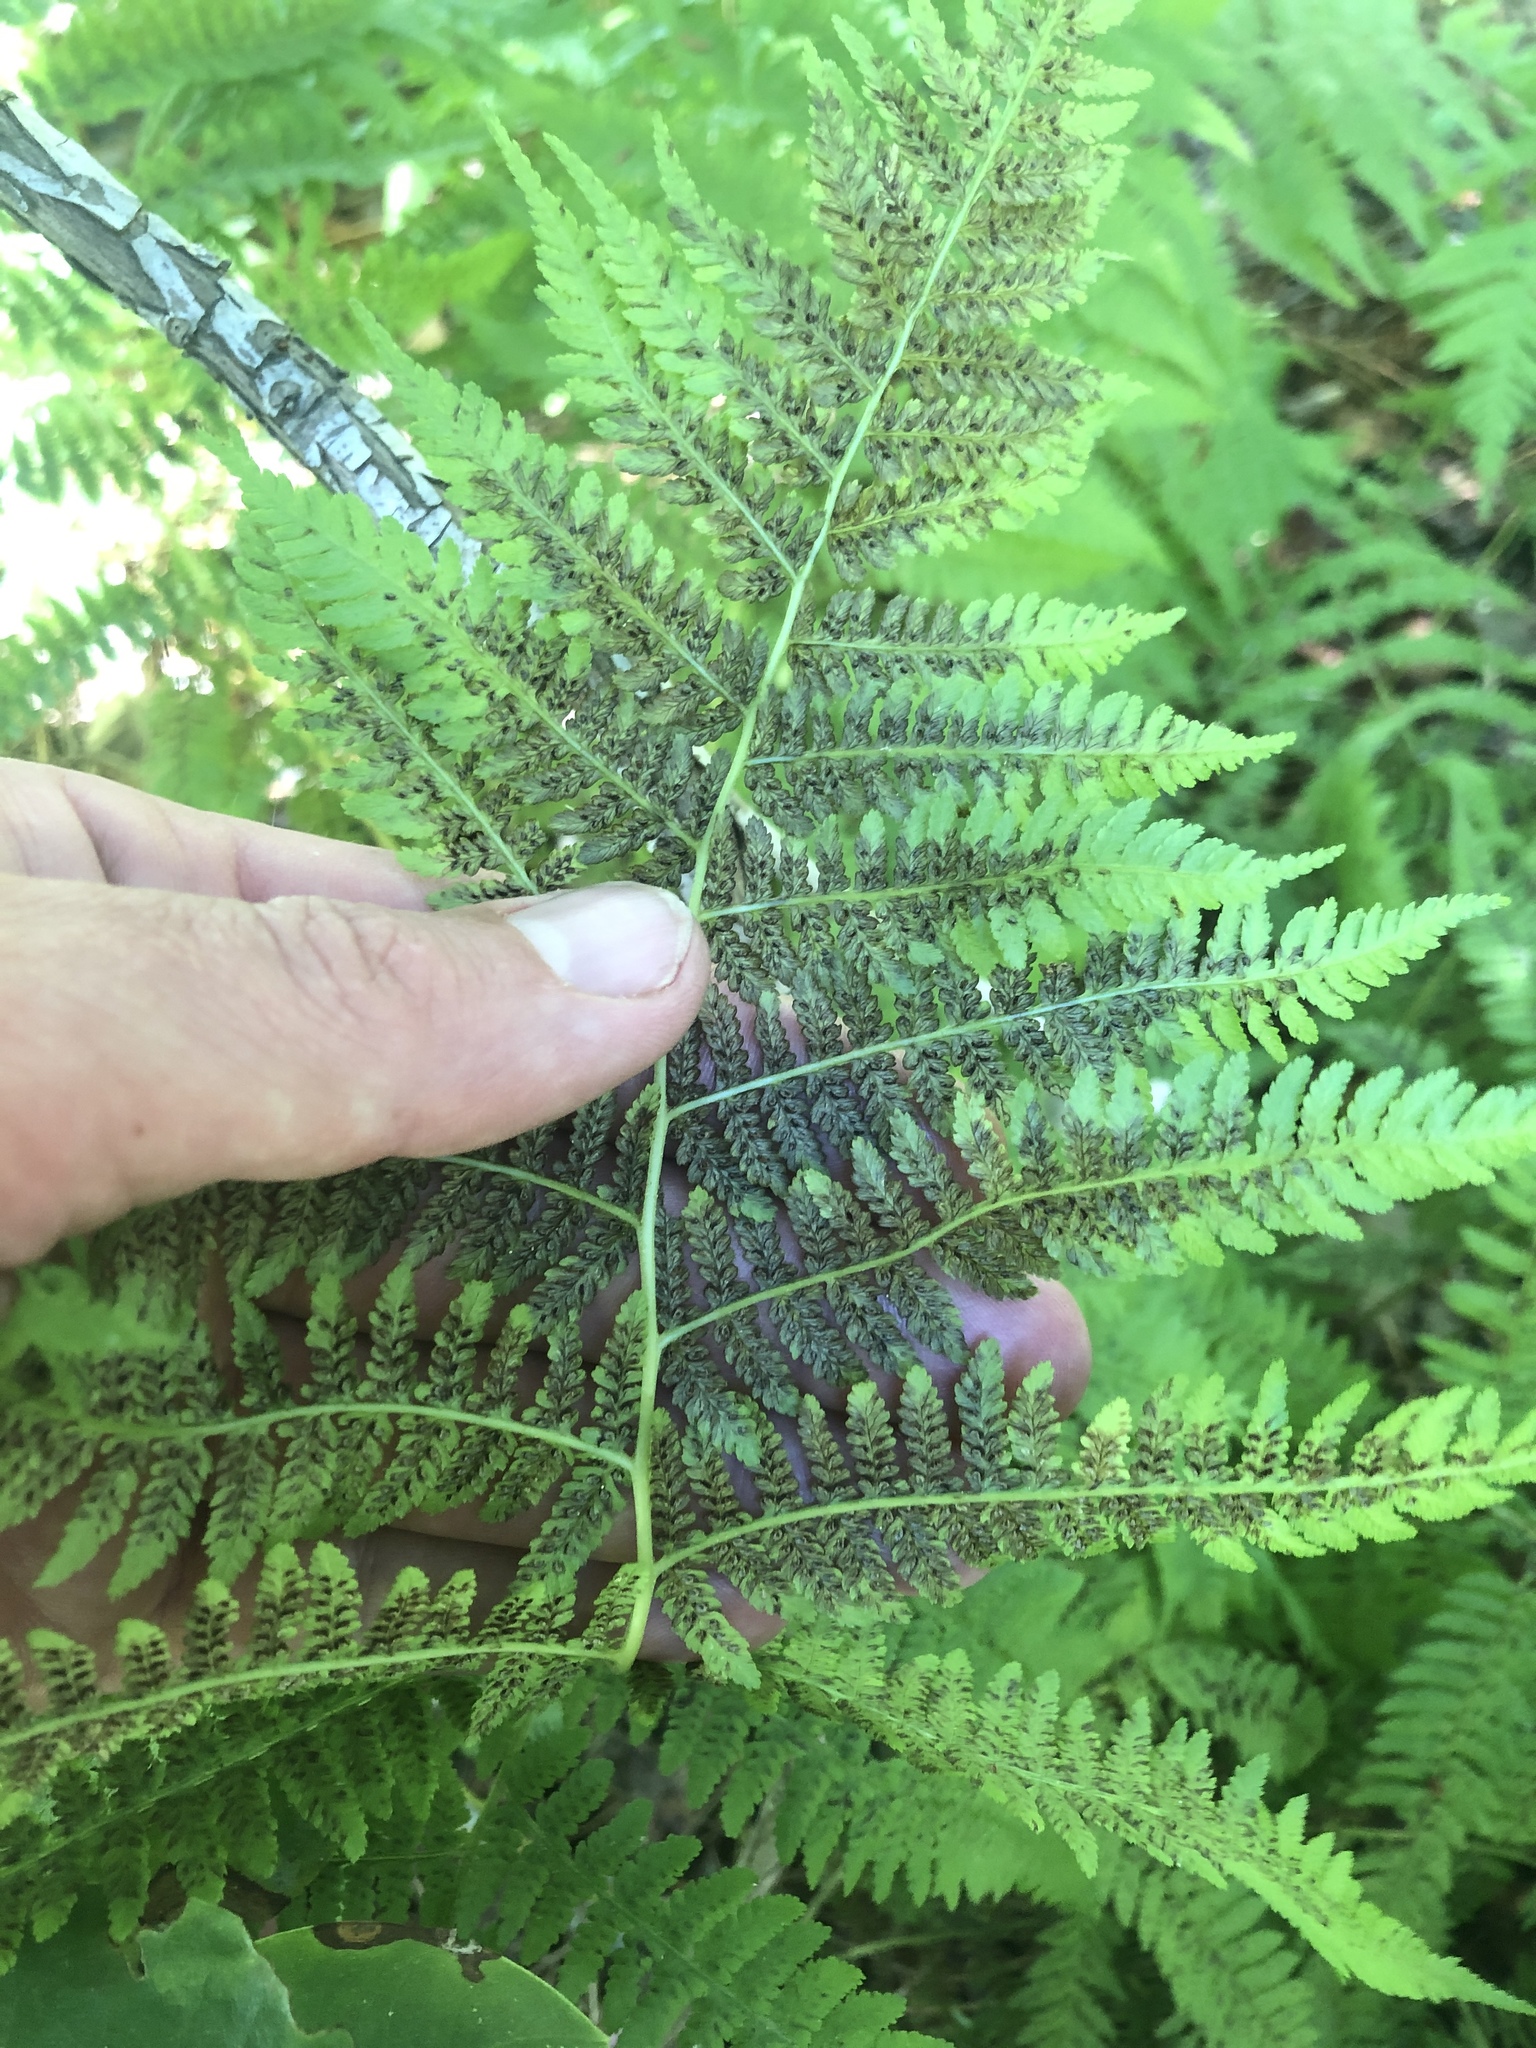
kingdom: Plantae
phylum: Tracheophyta
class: Polypodiopsida
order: Polypodiales
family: Athyriaceae
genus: Athyrium
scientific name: Athyrium angustum
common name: Northern lady fern
